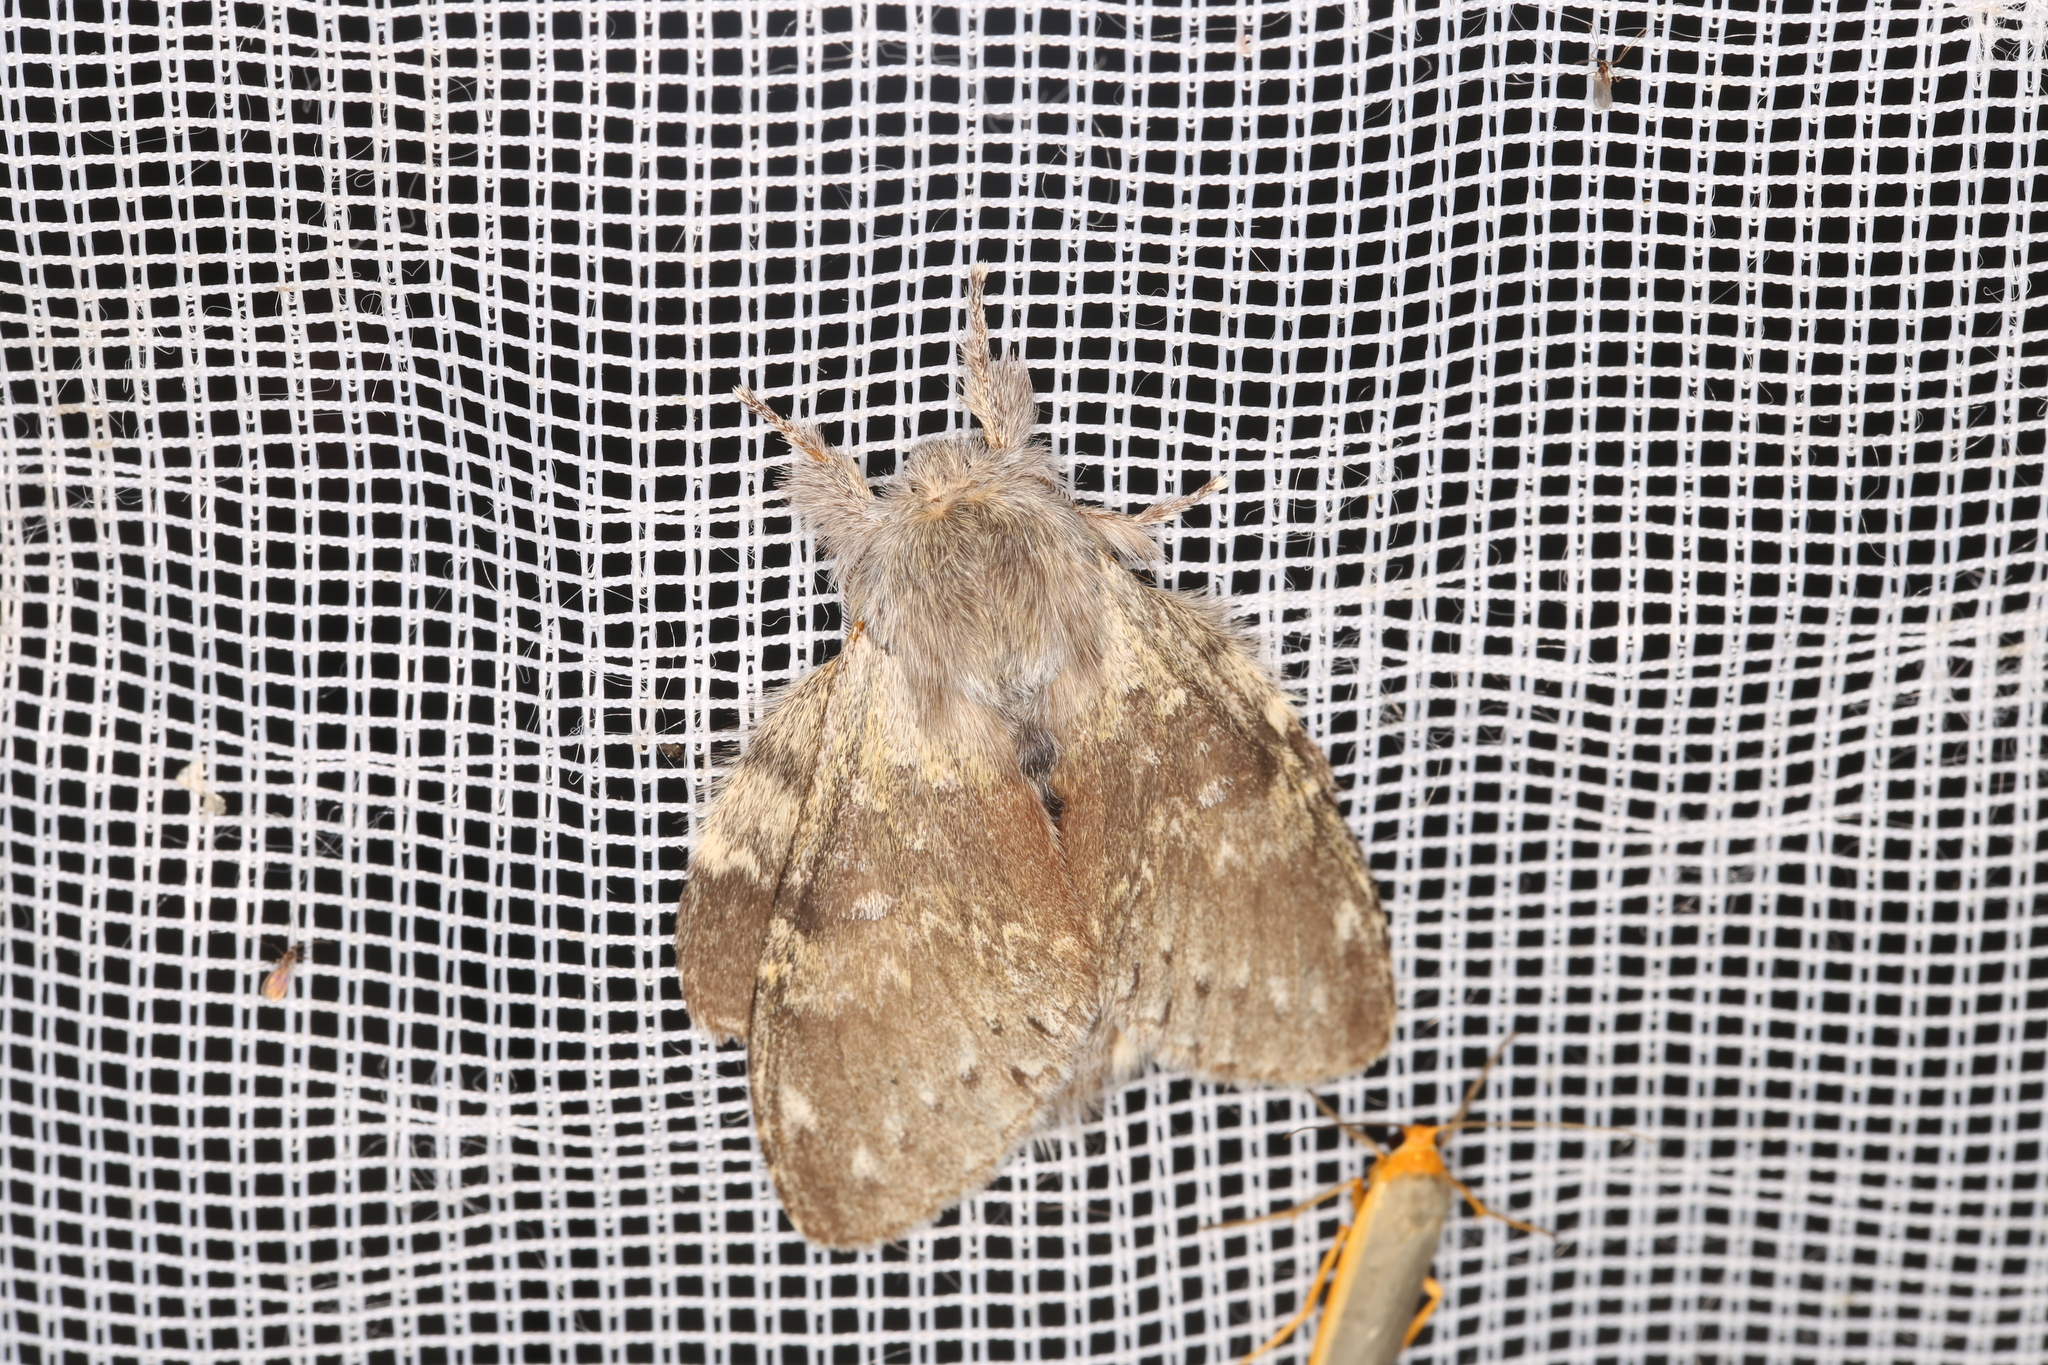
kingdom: Animalia
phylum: Arthropoda
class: Insecta
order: Lepidoptera
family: Notodontidae
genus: Stauropus
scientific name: Stauropus fagi
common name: Lobster moth
